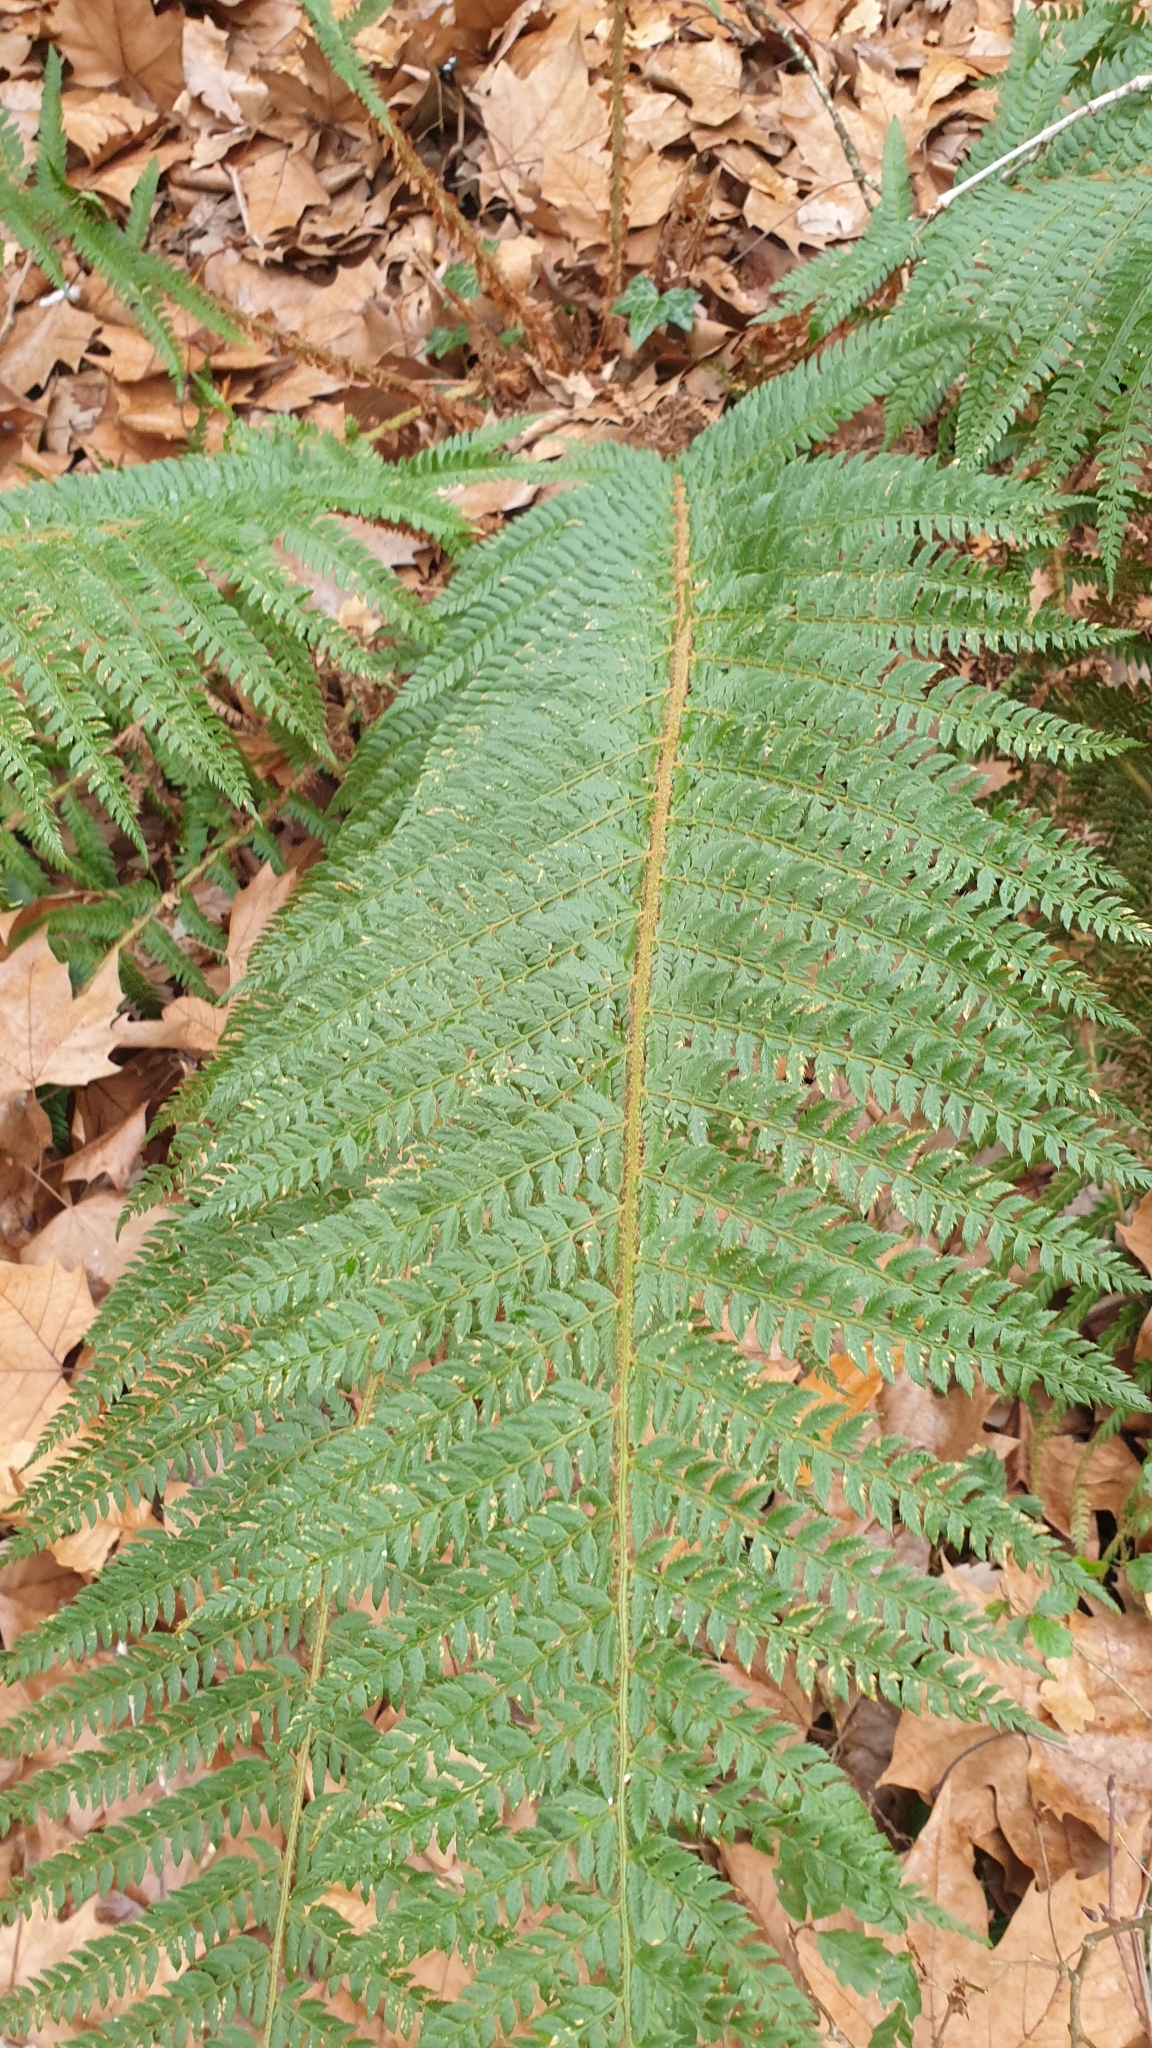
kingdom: Plantae
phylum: Tracheophyta
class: Polypodiopsida
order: Polypodiales
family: Dryopteridaceae
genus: Polystichum
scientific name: Polystichum setiferum
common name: Soft shield-fern
